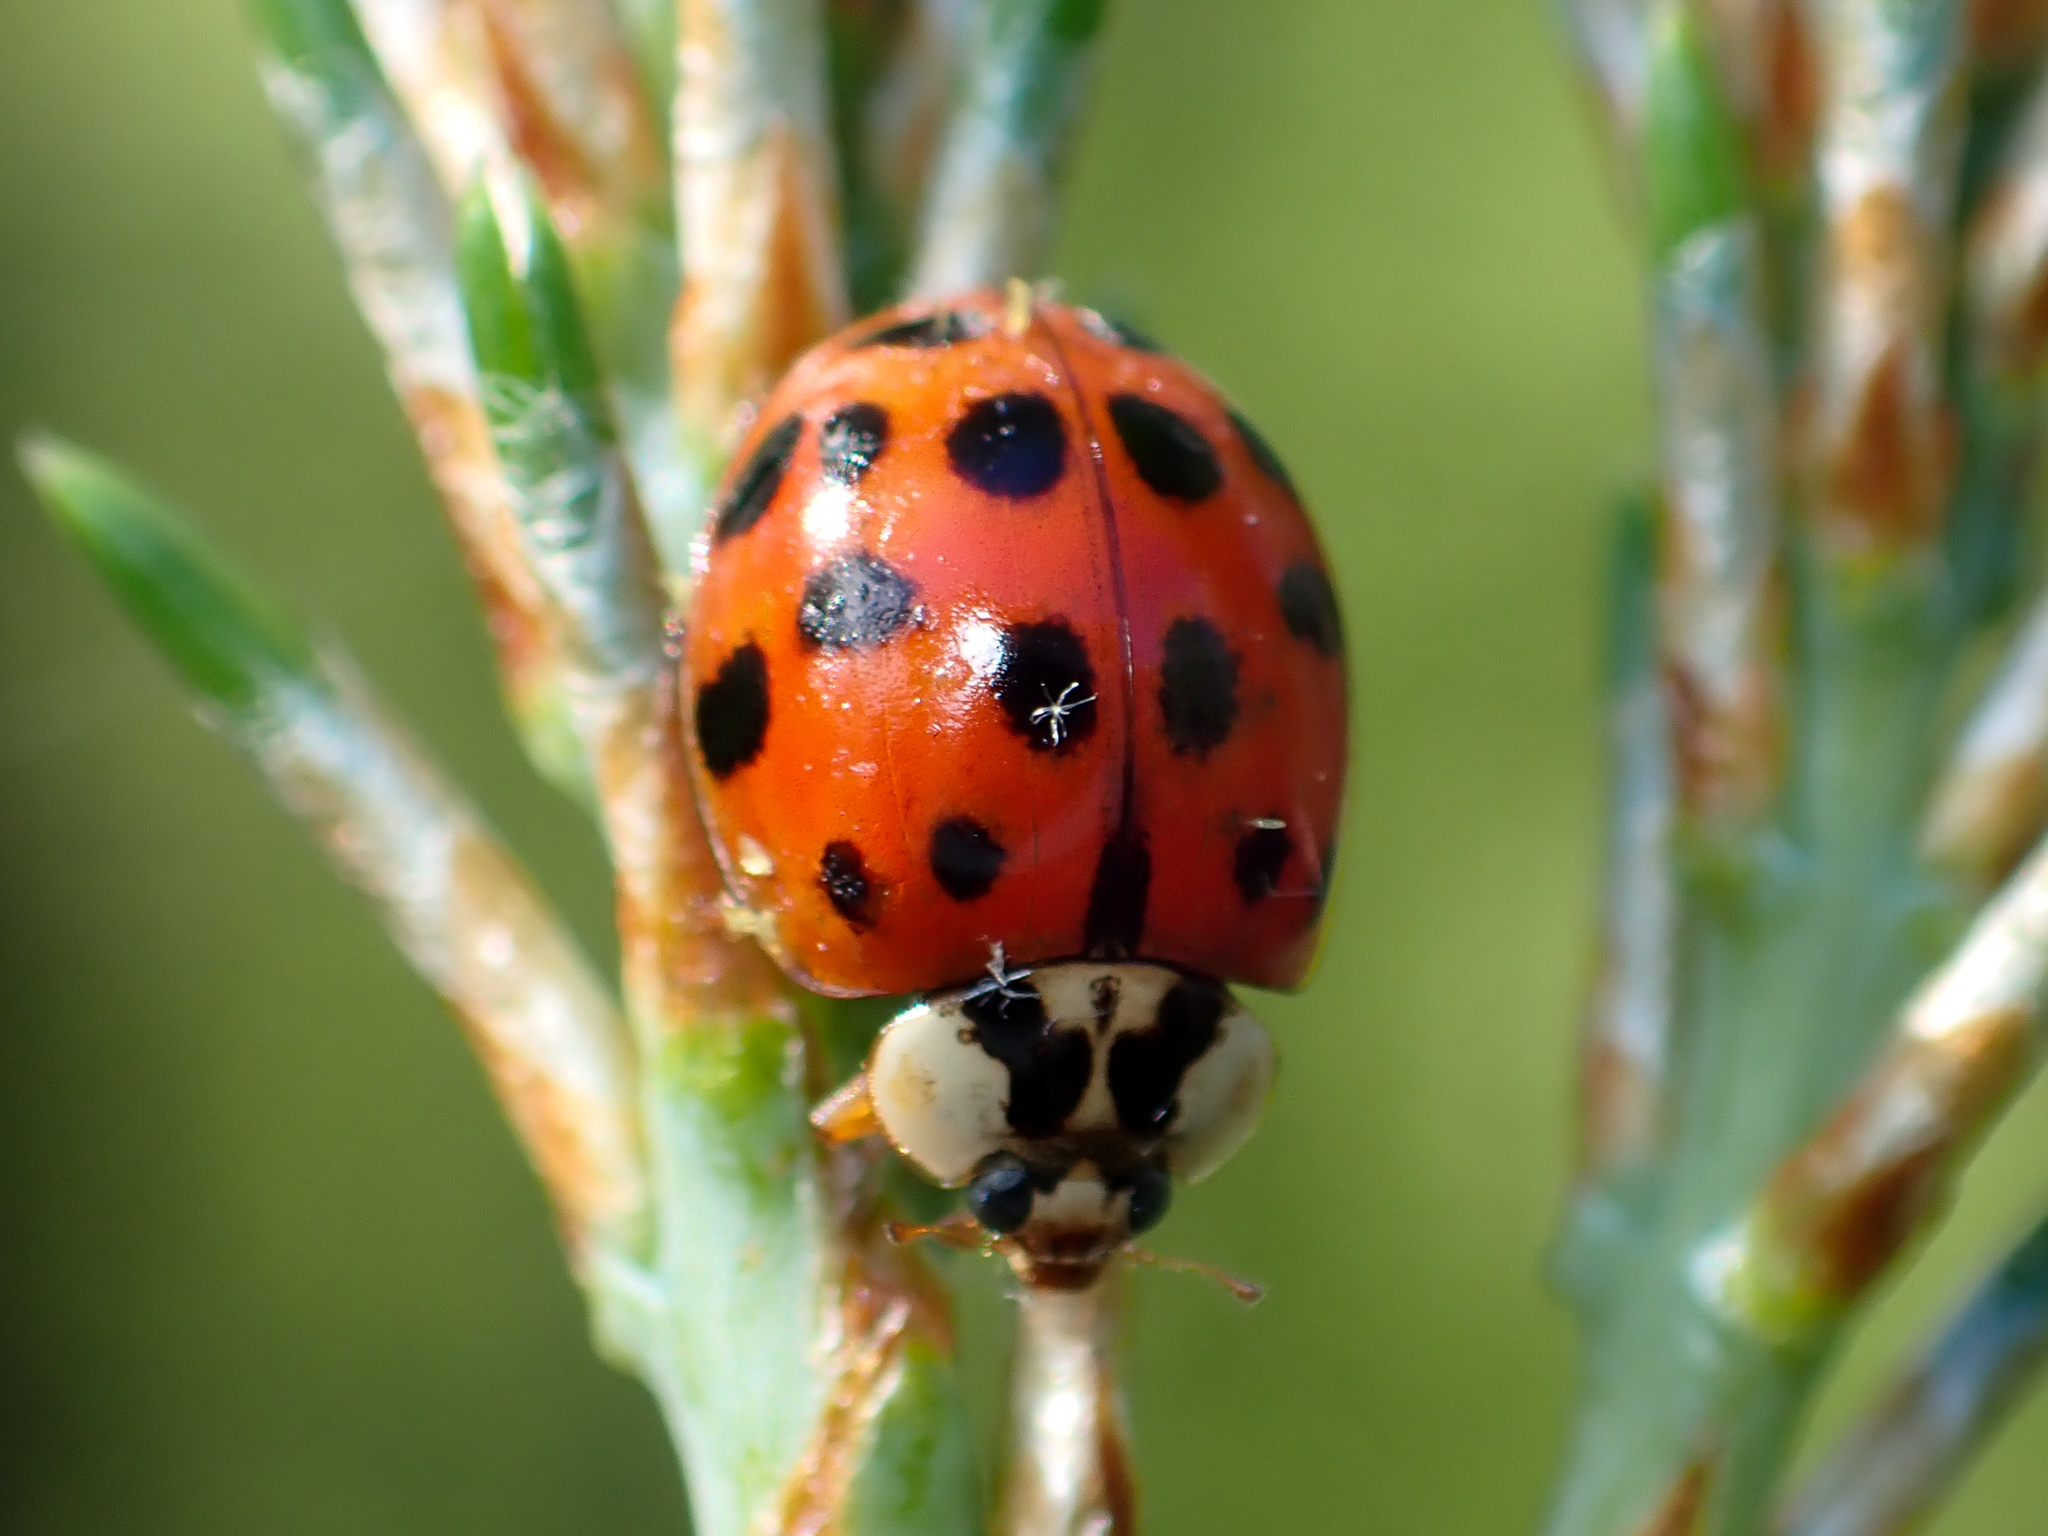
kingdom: Animalia
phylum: Arthropoda
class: Insecta
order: Coleoptera
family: Coccinellidae
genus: Harmonia
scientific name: Harmonia axyridis
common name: Harlequin ladybird
